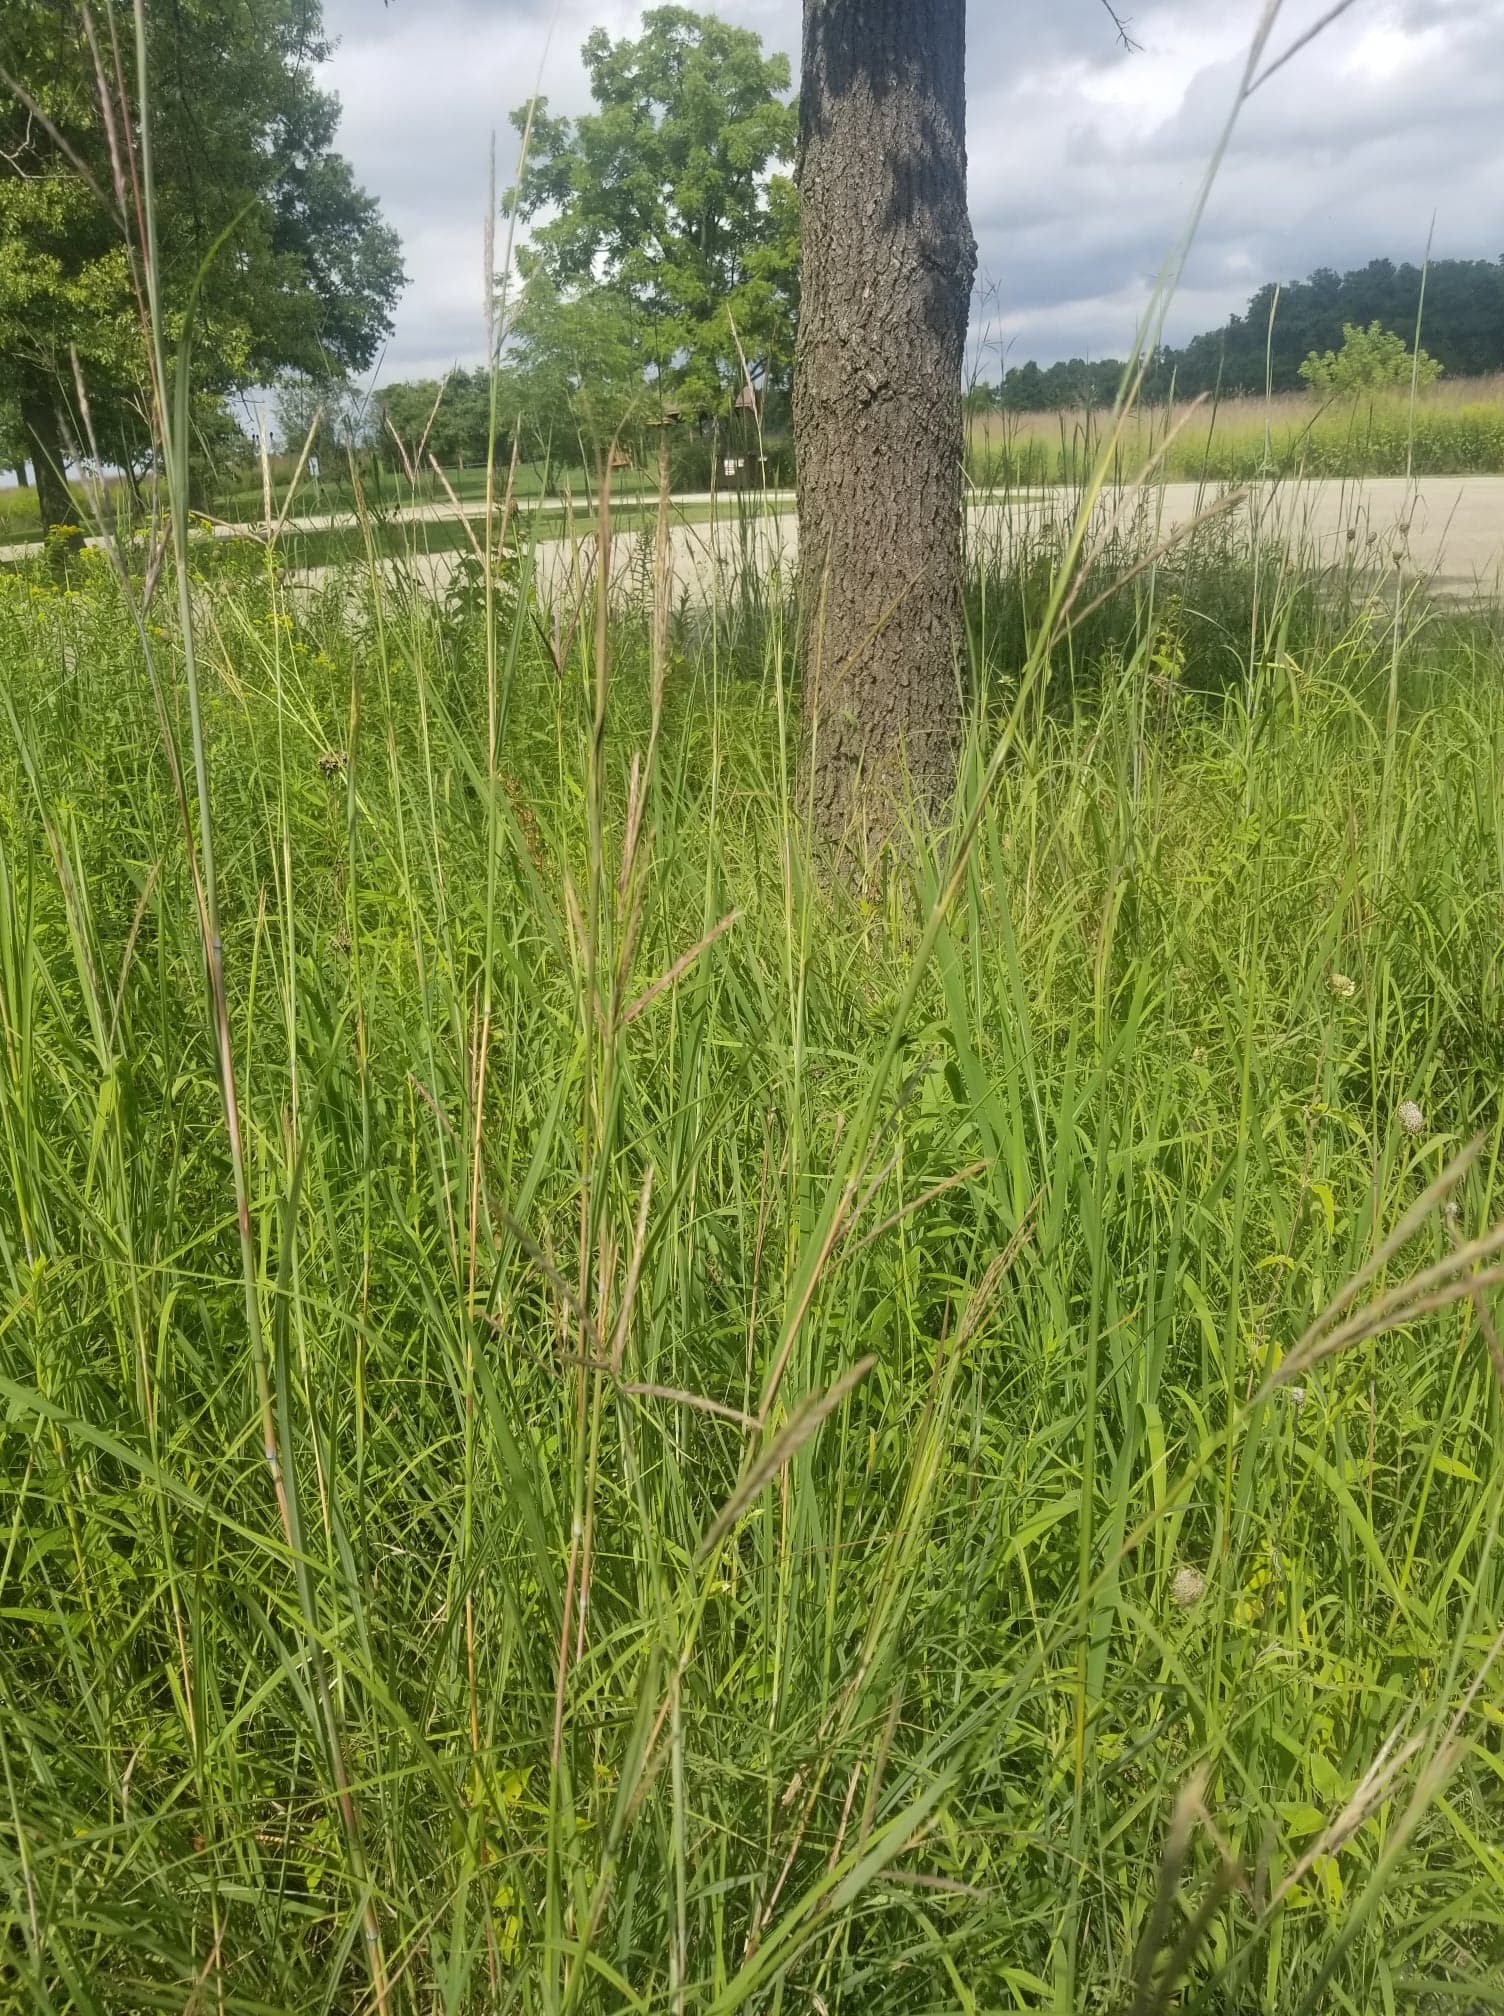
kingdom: Plantae
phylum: Tracheophyta
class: Liliopsida
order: Poales
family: Poaceae
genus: Andropogon
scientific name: Andropogon gerardi
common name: Big bluestem
